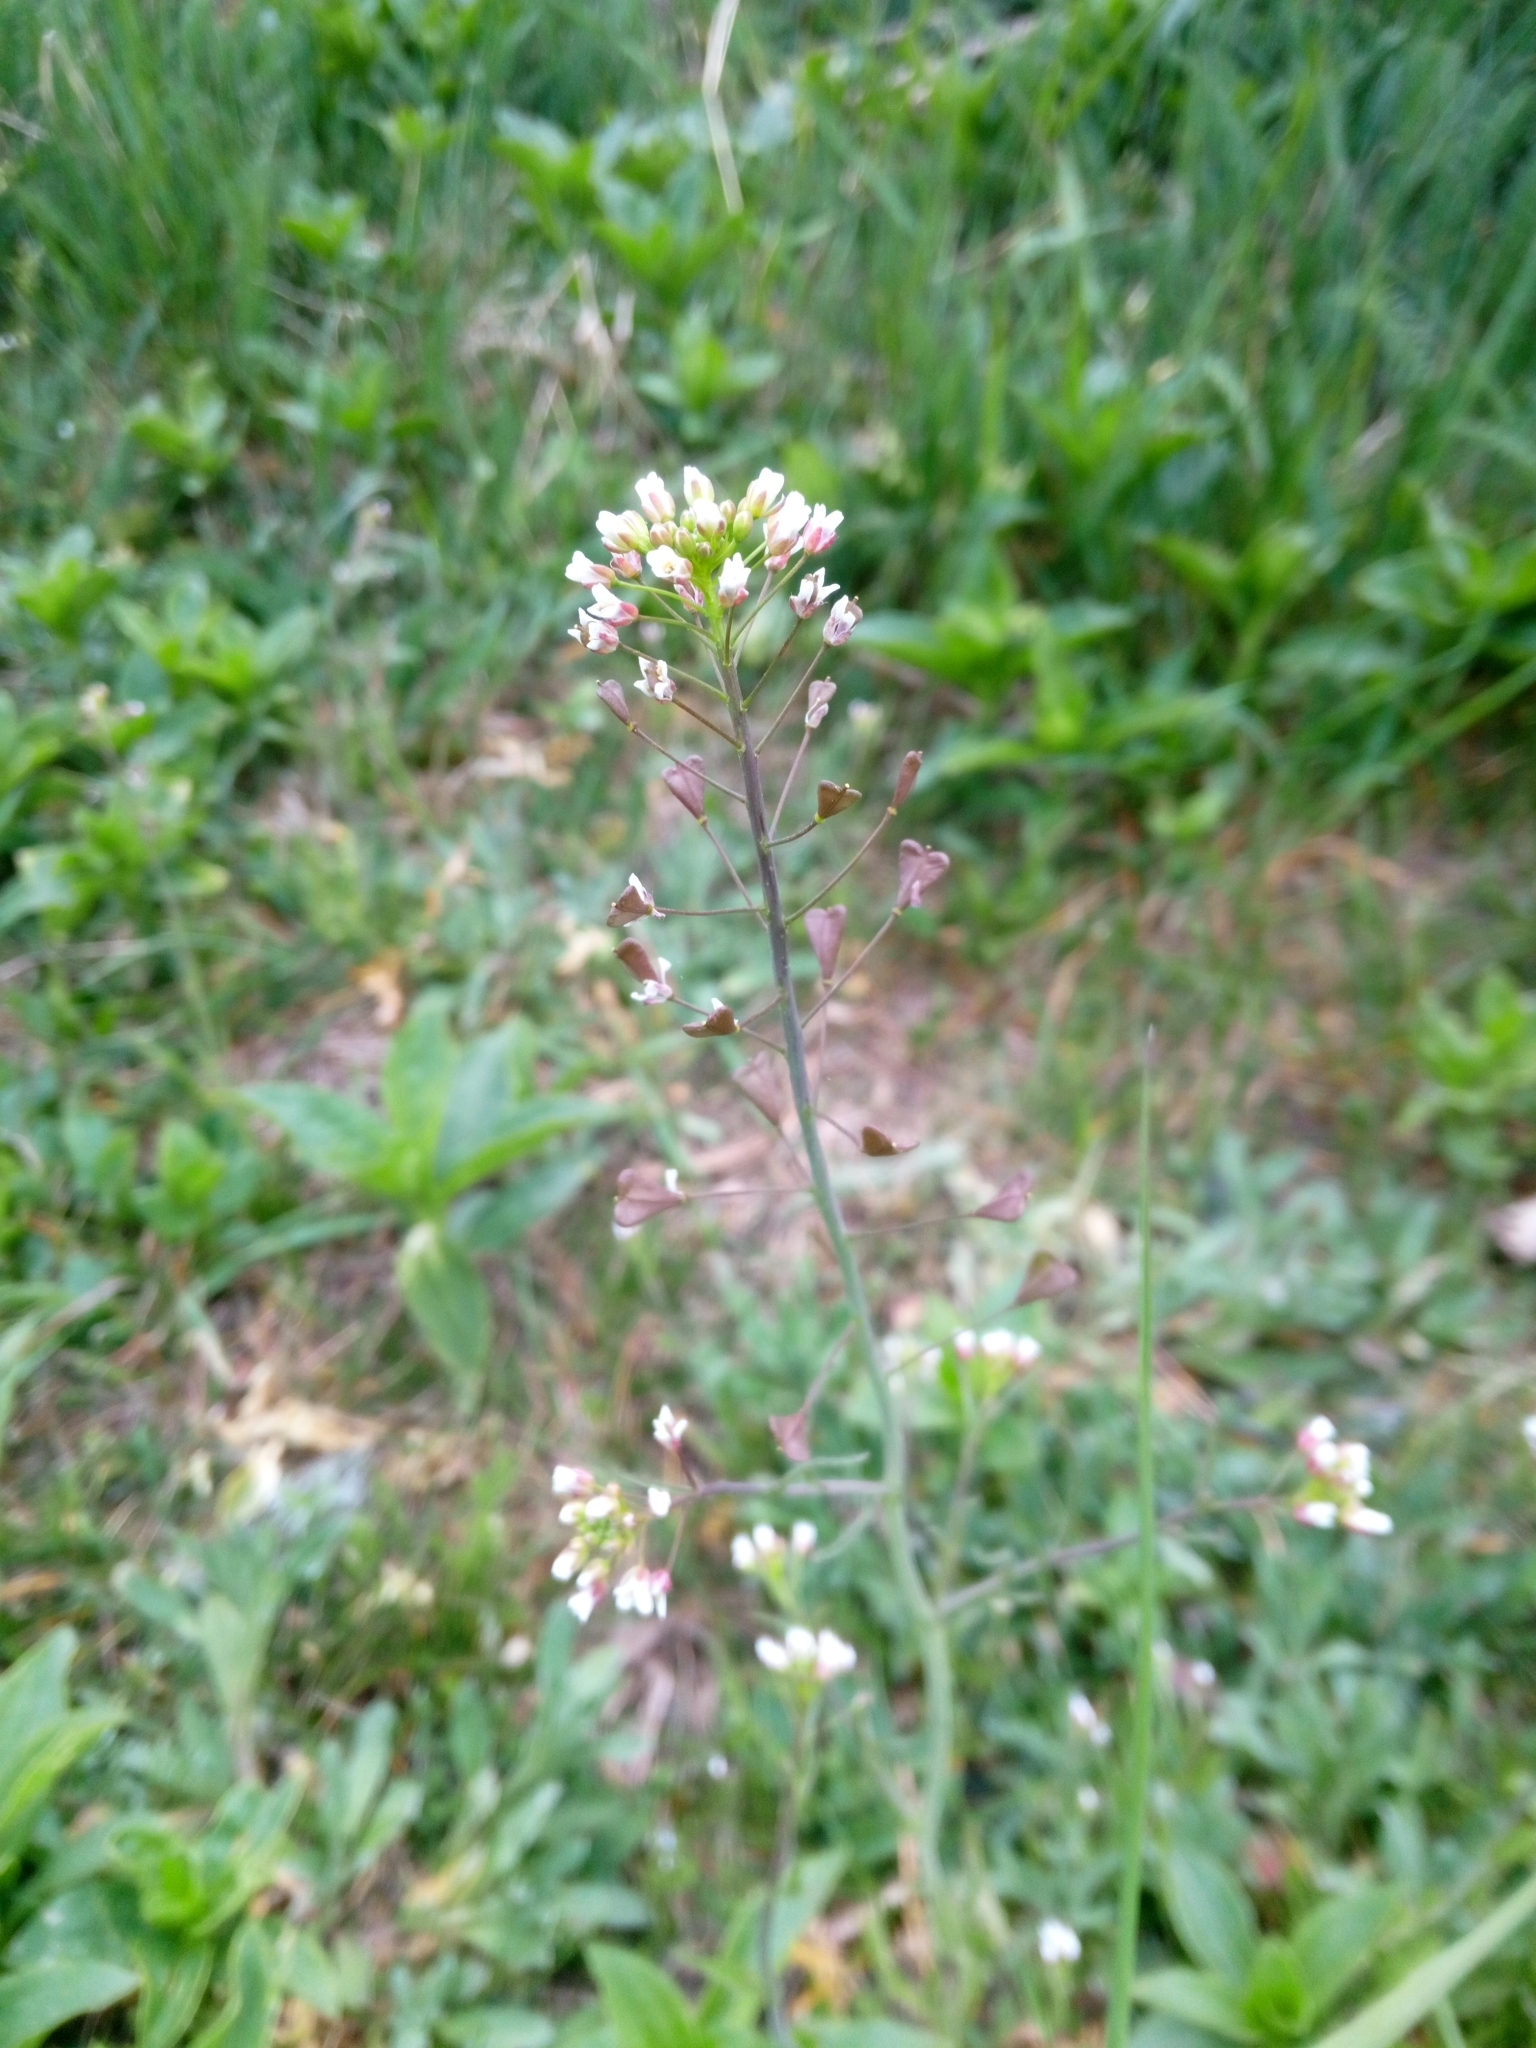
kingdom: Plantae
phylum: Tracheophyta
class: Magnoliopsida
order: Brassicales
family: Brassicaceae
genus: Capsella
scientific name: Capsella bursa-pastoris
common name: Shepherd's purse
